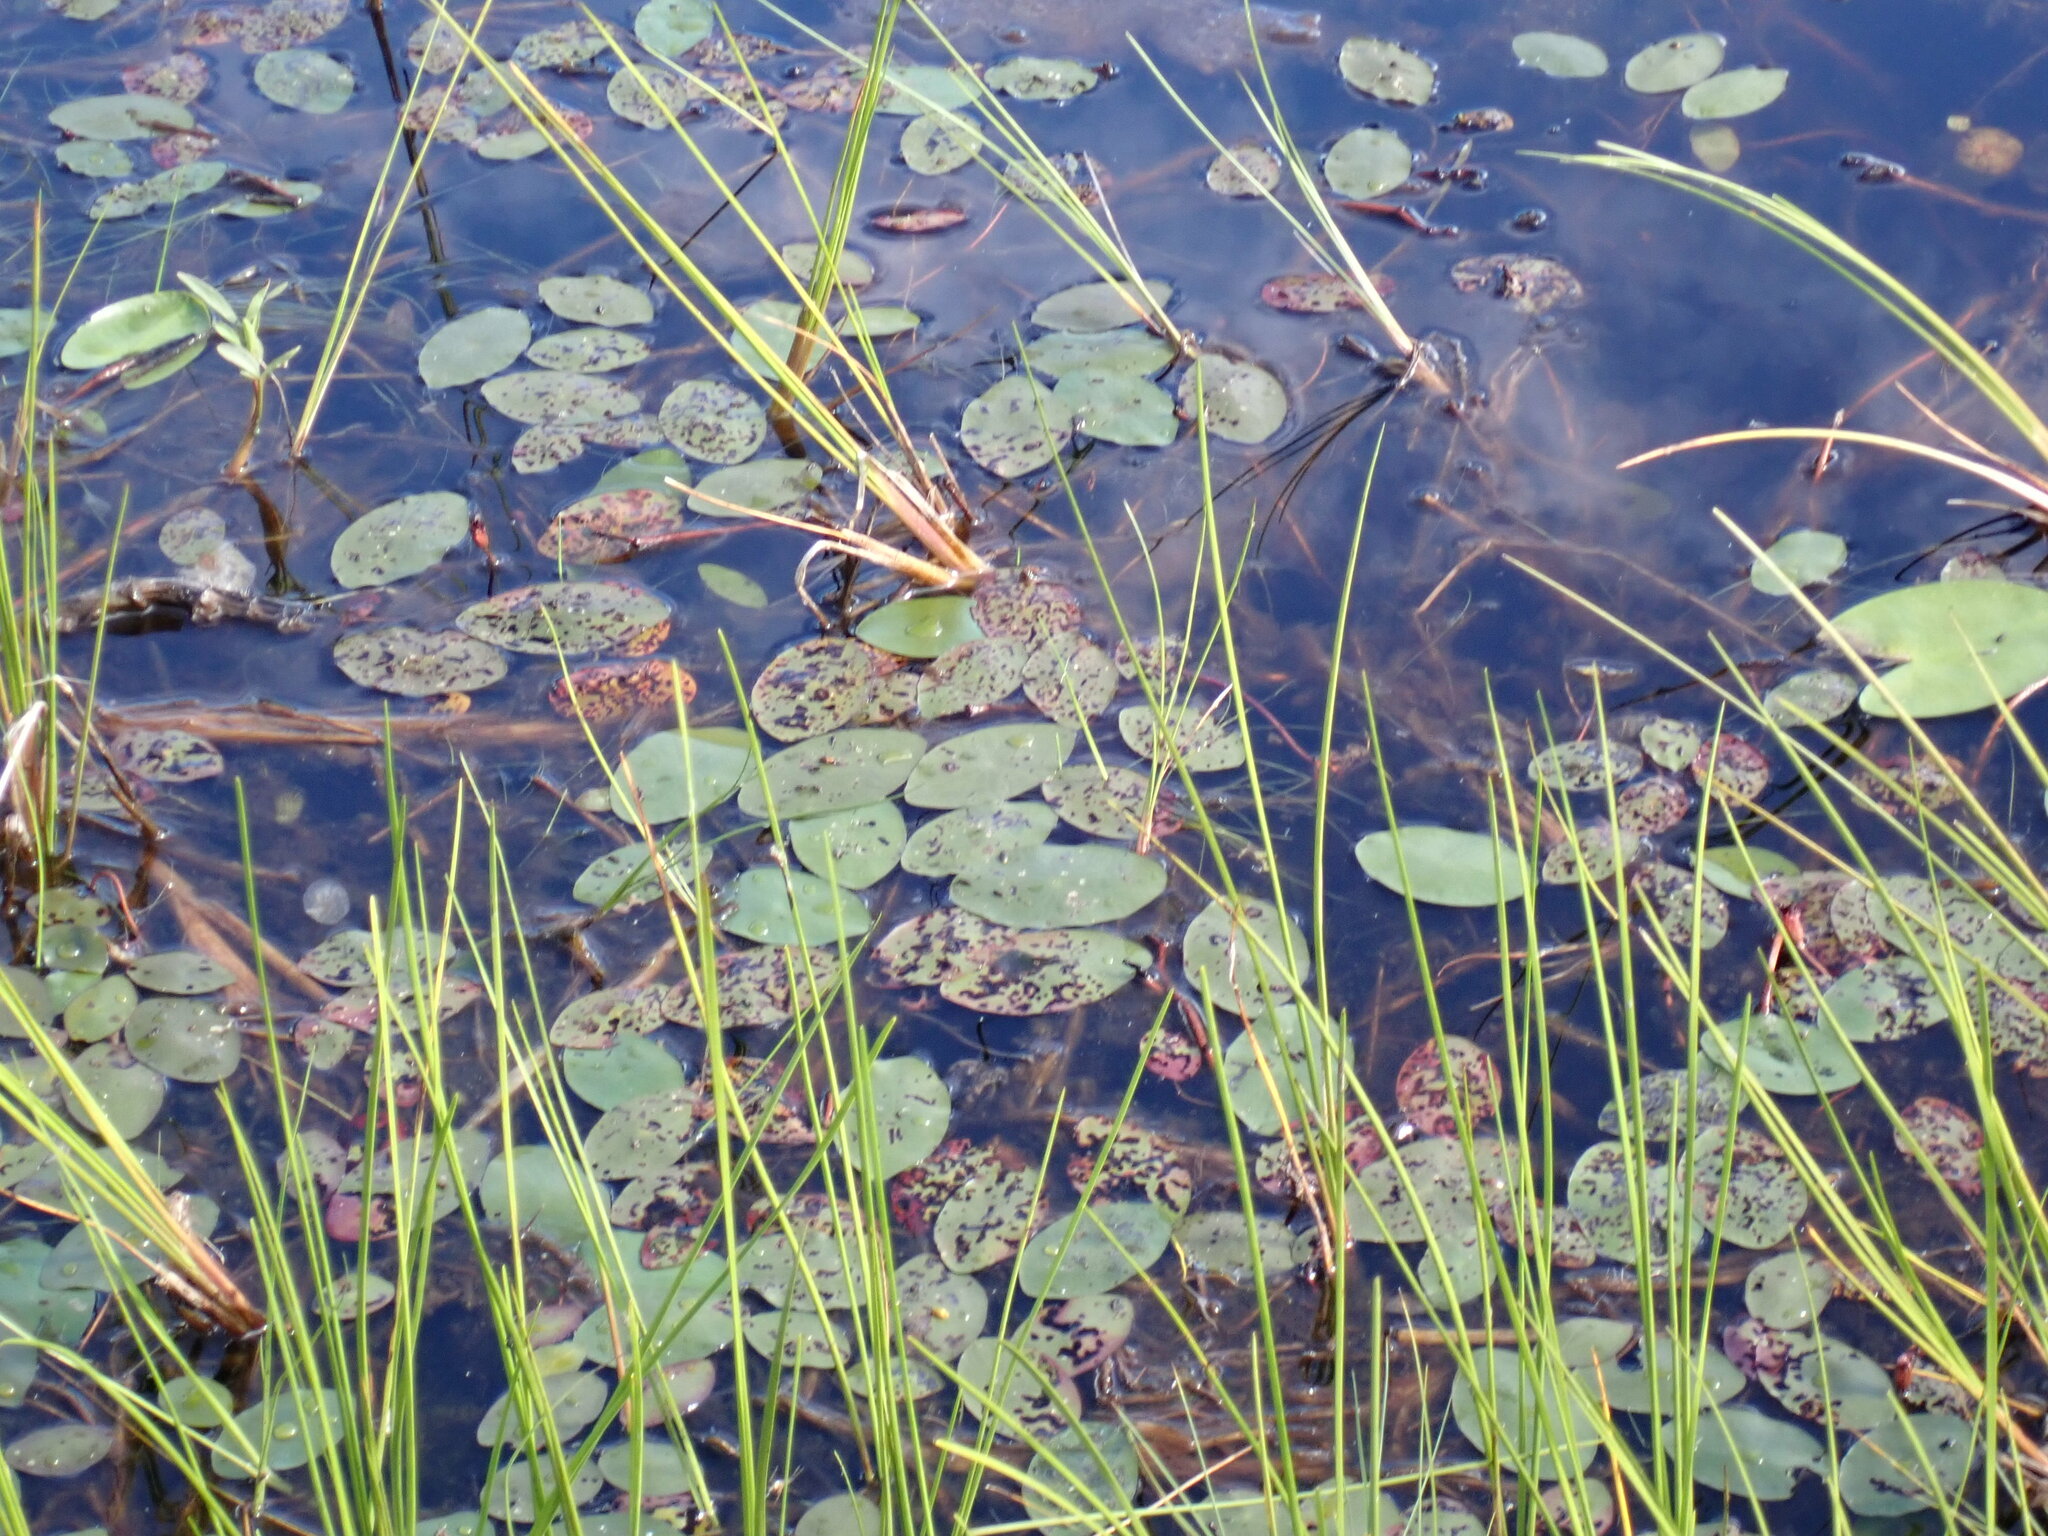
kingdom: Plantae
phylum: Tracheophyta
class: Magnoliopsida
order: Nymphaeales
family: Cabombaceae
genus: Brasenia
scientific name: Brasenia schreberi
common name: Water-shield
